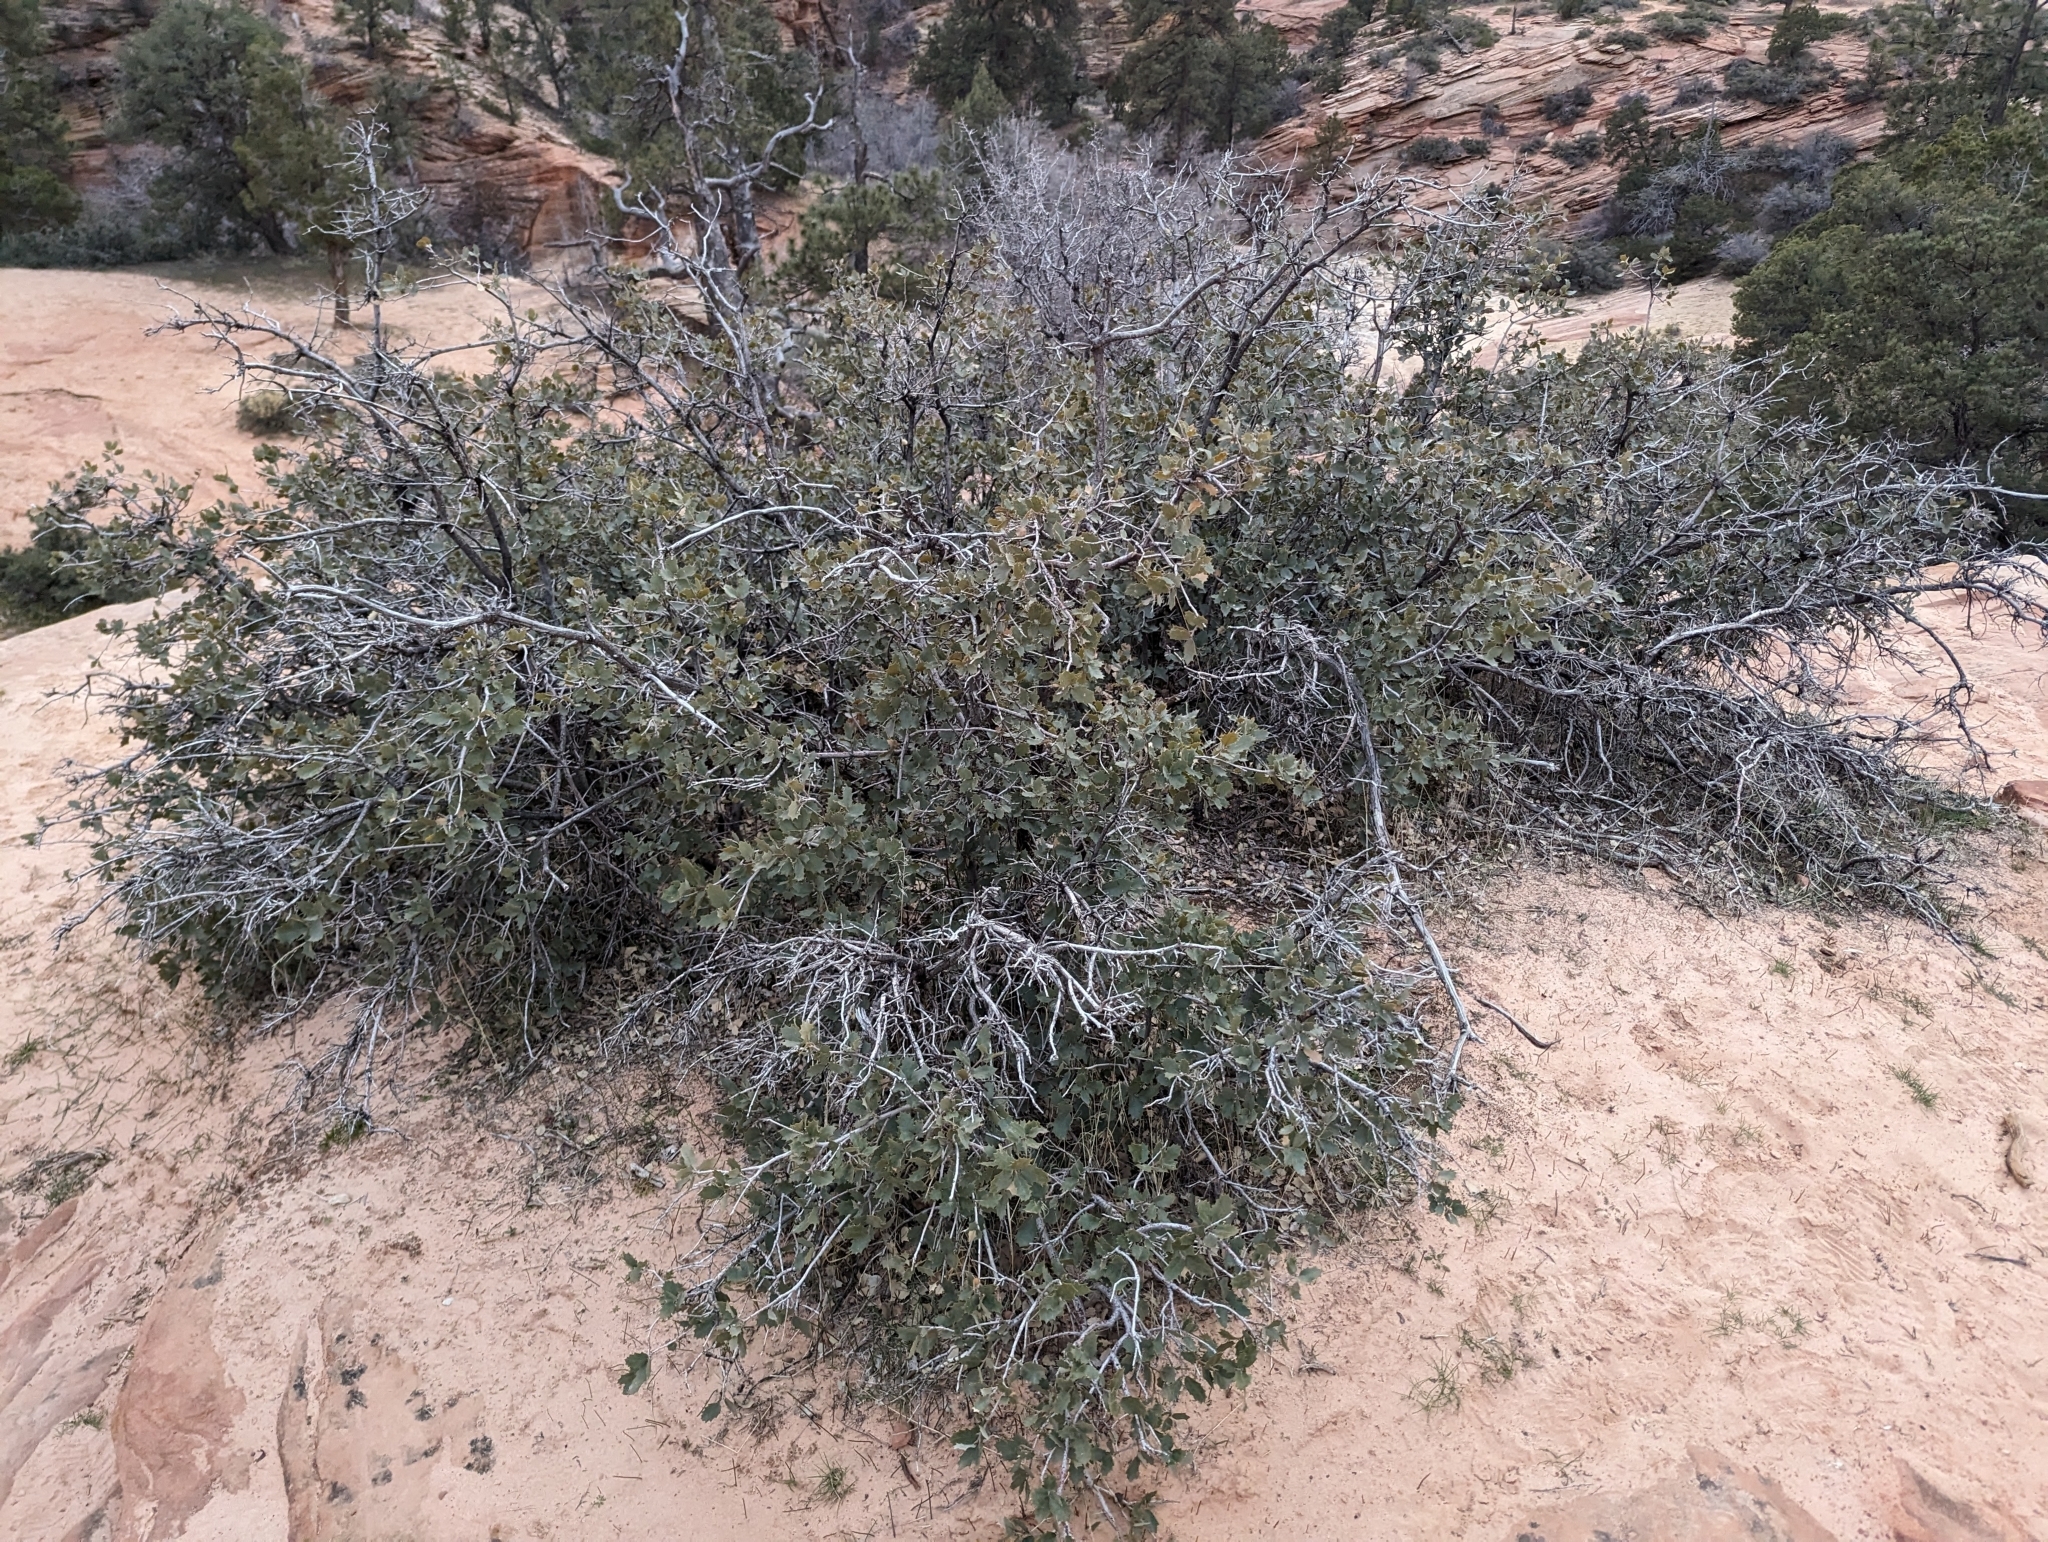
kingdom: Plantae
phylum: Tracheophyta
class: Magnoliopsida
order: Fagales
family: Fagaceae
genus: Quercus
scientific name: Quercus turbinella
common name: Sonoran scrub oak
